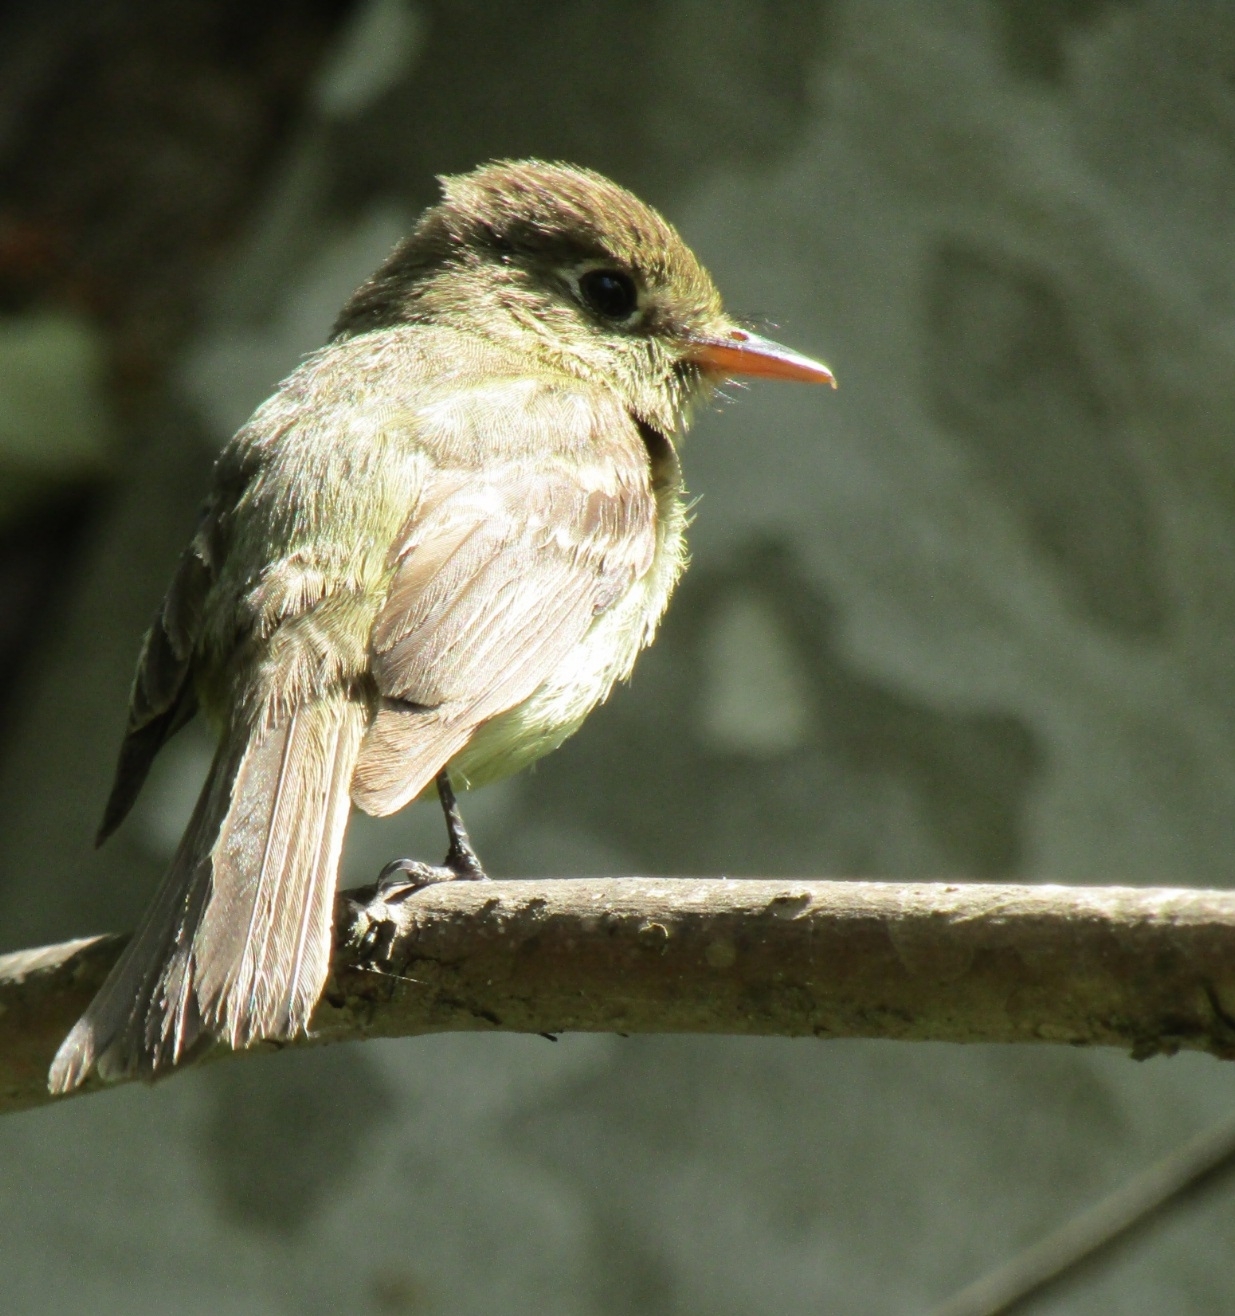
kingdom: Animalia
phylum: Chordata
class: Aves
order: Passeriformes
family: Tyrannidae
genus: Empidonax
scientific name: Empidonax difficilis
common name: Pacific-slope flycatcher
